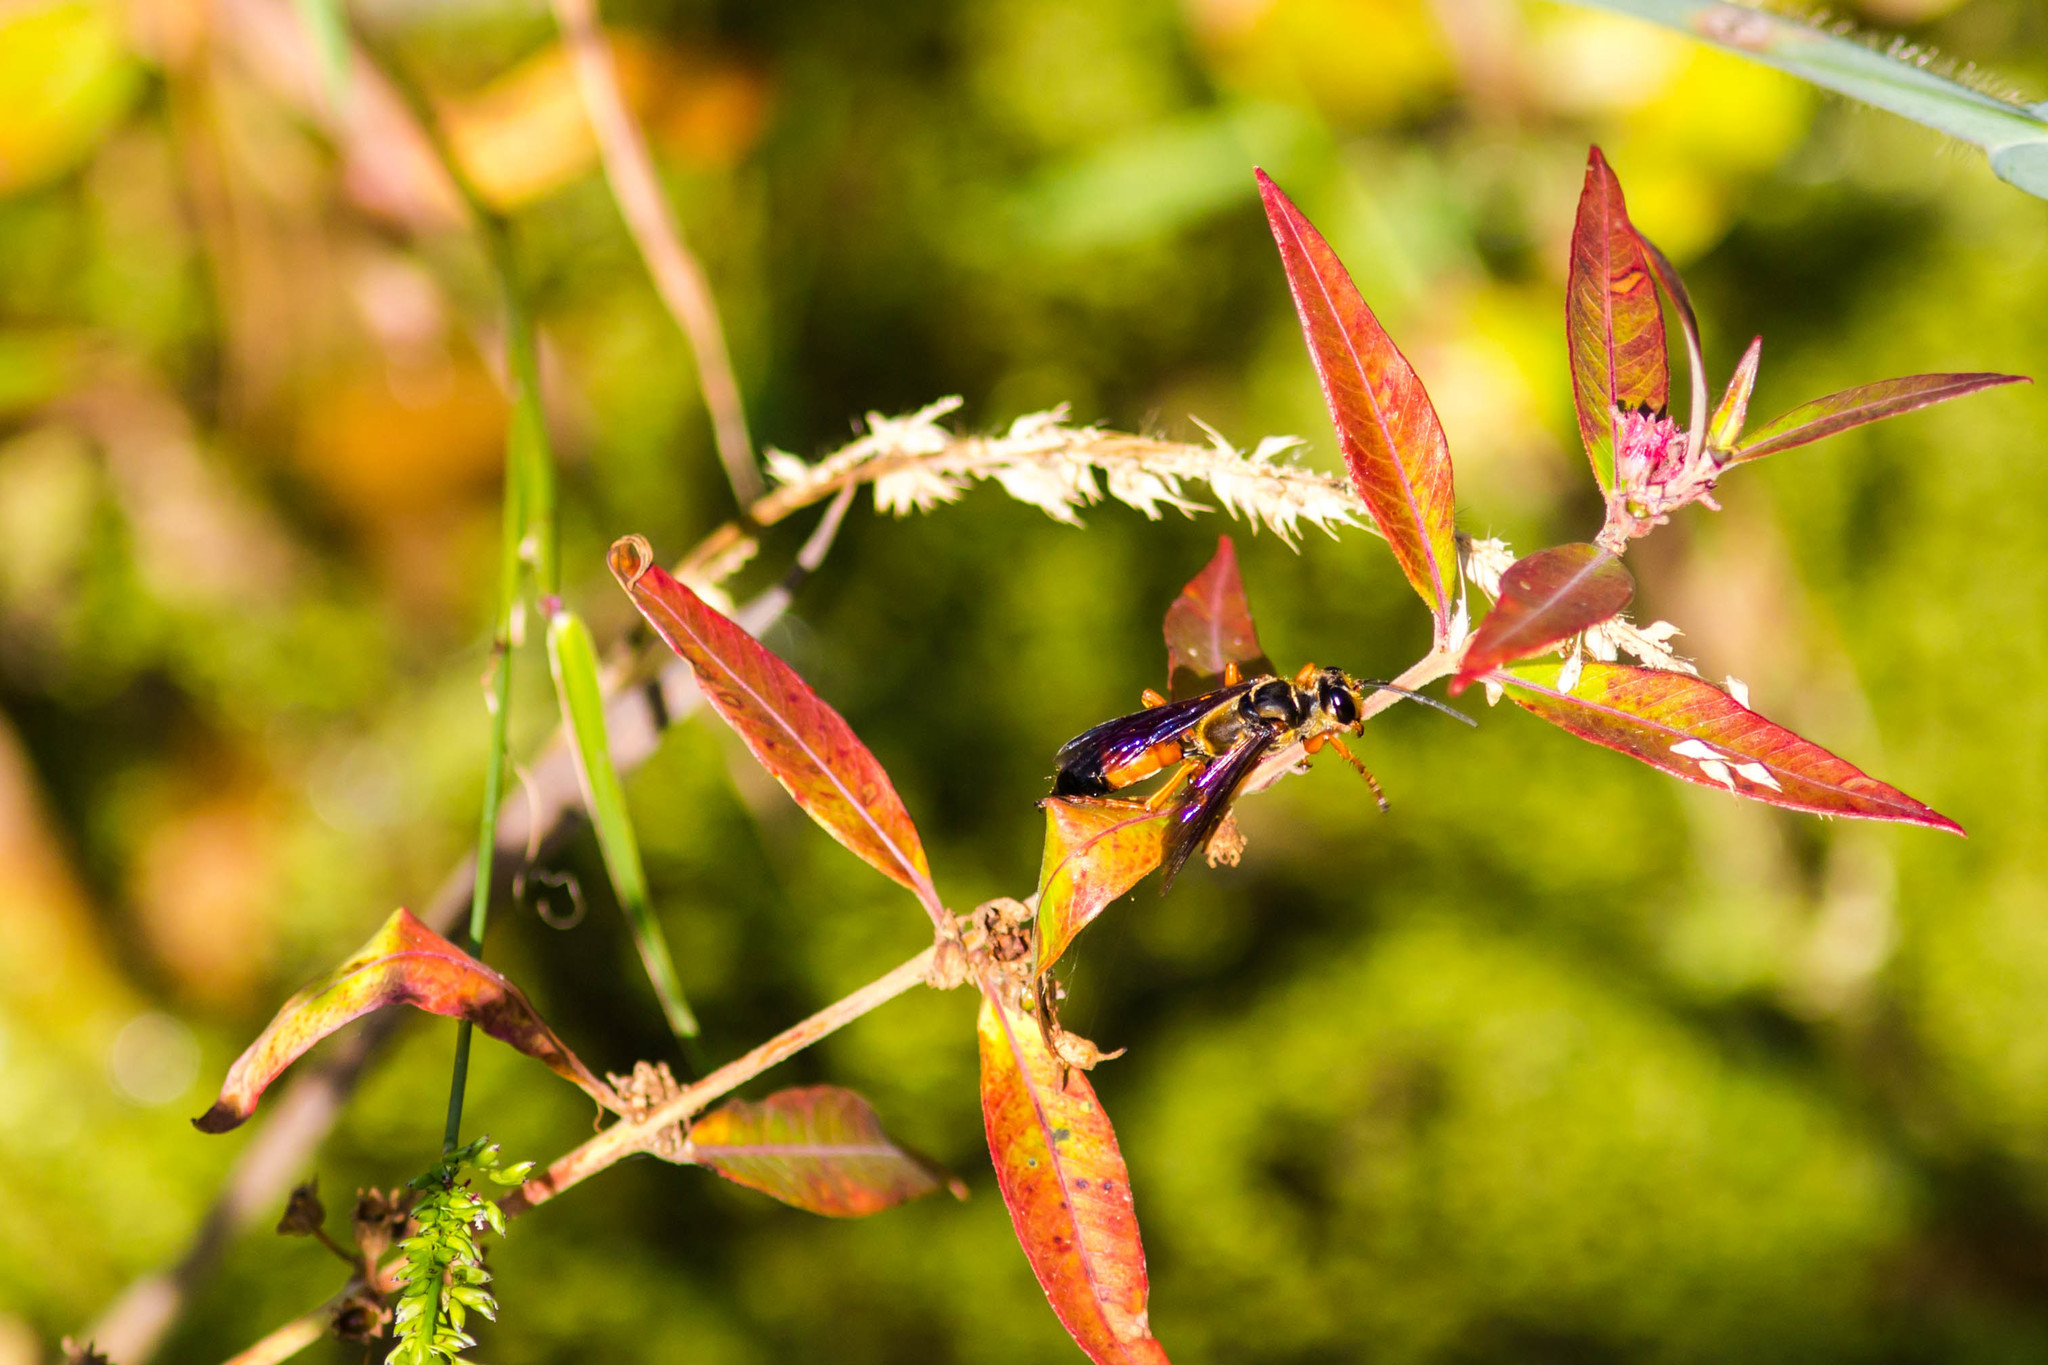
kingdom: Animalia
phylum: Arthropoda
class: Insecta
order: Hymenoptera
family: Sphecidae
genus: Sphex
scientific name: Sphex ichneumoneus
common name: Great golden digger wasp
